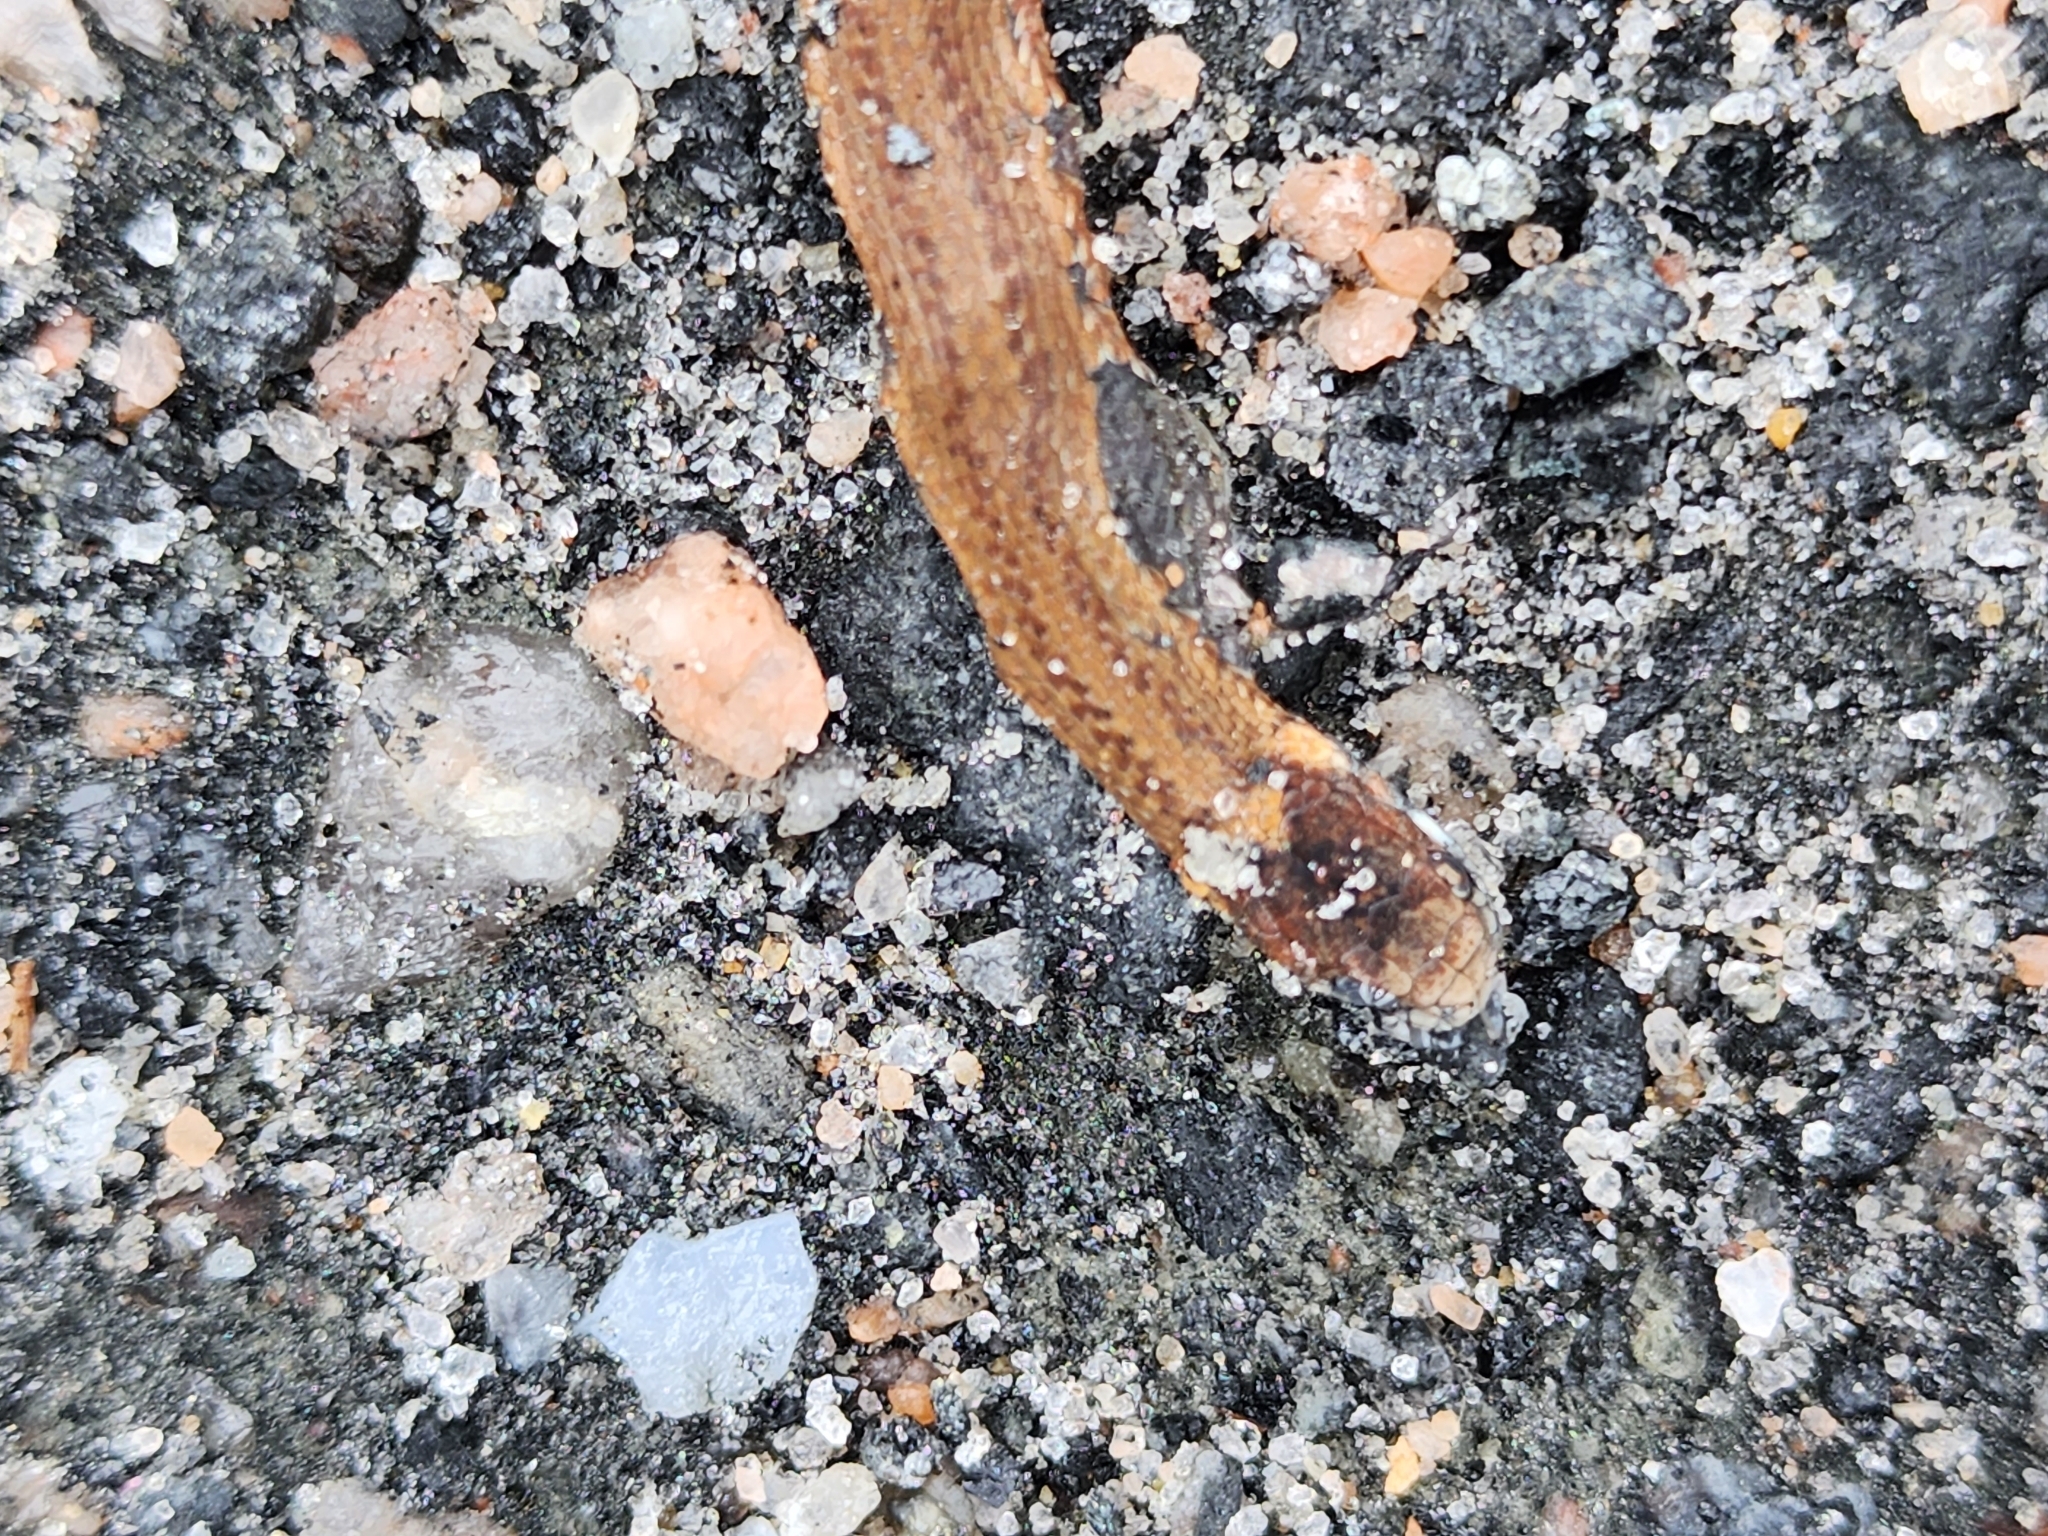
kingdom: Animalia
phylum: Chordata
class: Squamata
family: Colubridae
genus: Storeria
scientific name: Storeria occipitomaculata
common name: Redbelly snake
